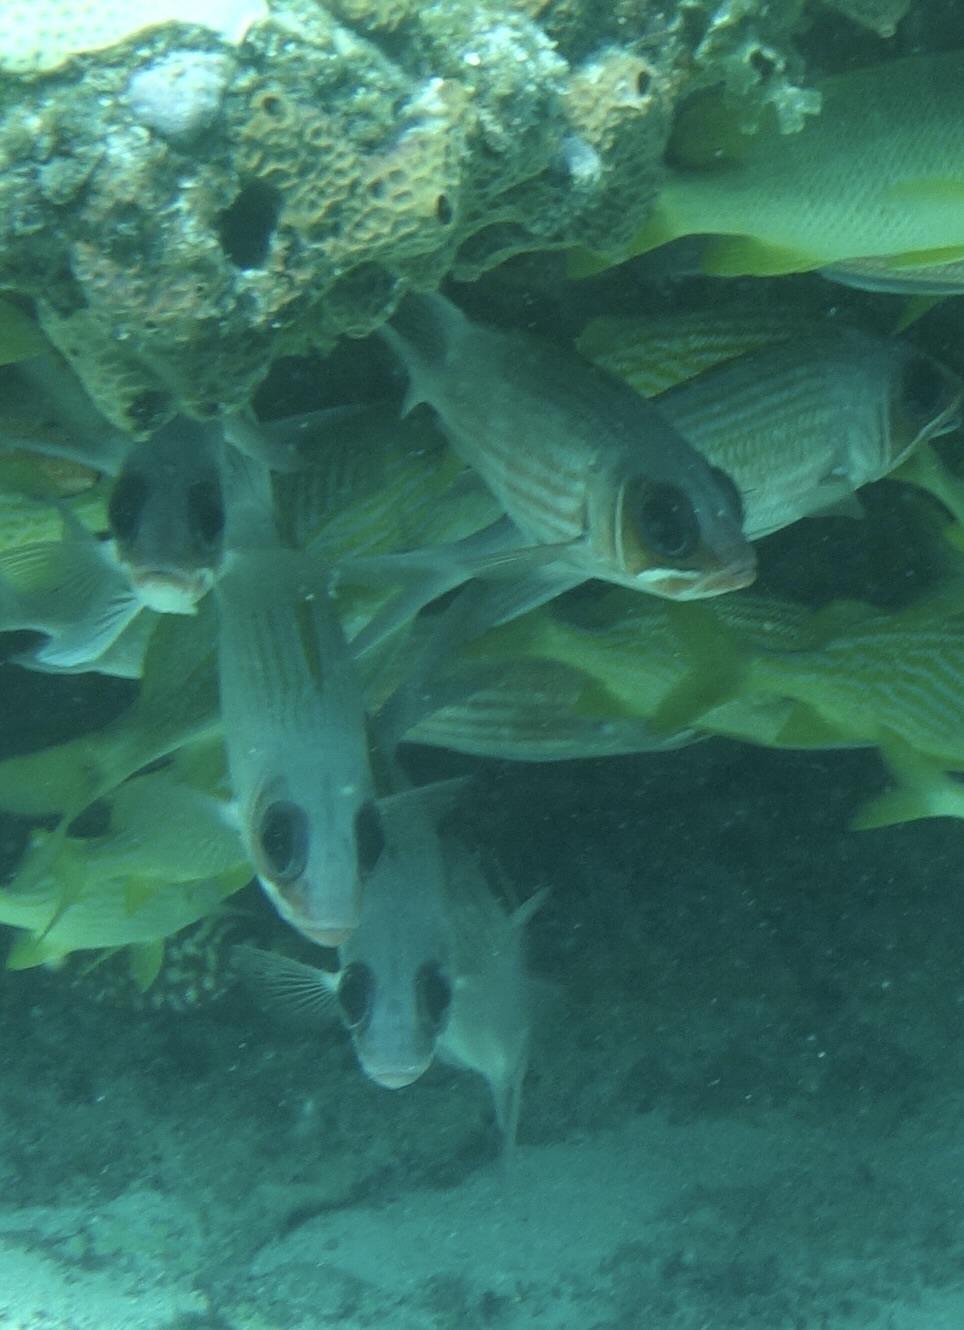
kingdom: Animalia
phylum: Chordata
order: Beryciformes
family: Holocentridae
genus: Holocentrus
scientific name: Holocentrus adscensionis
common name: Squirrelfish
